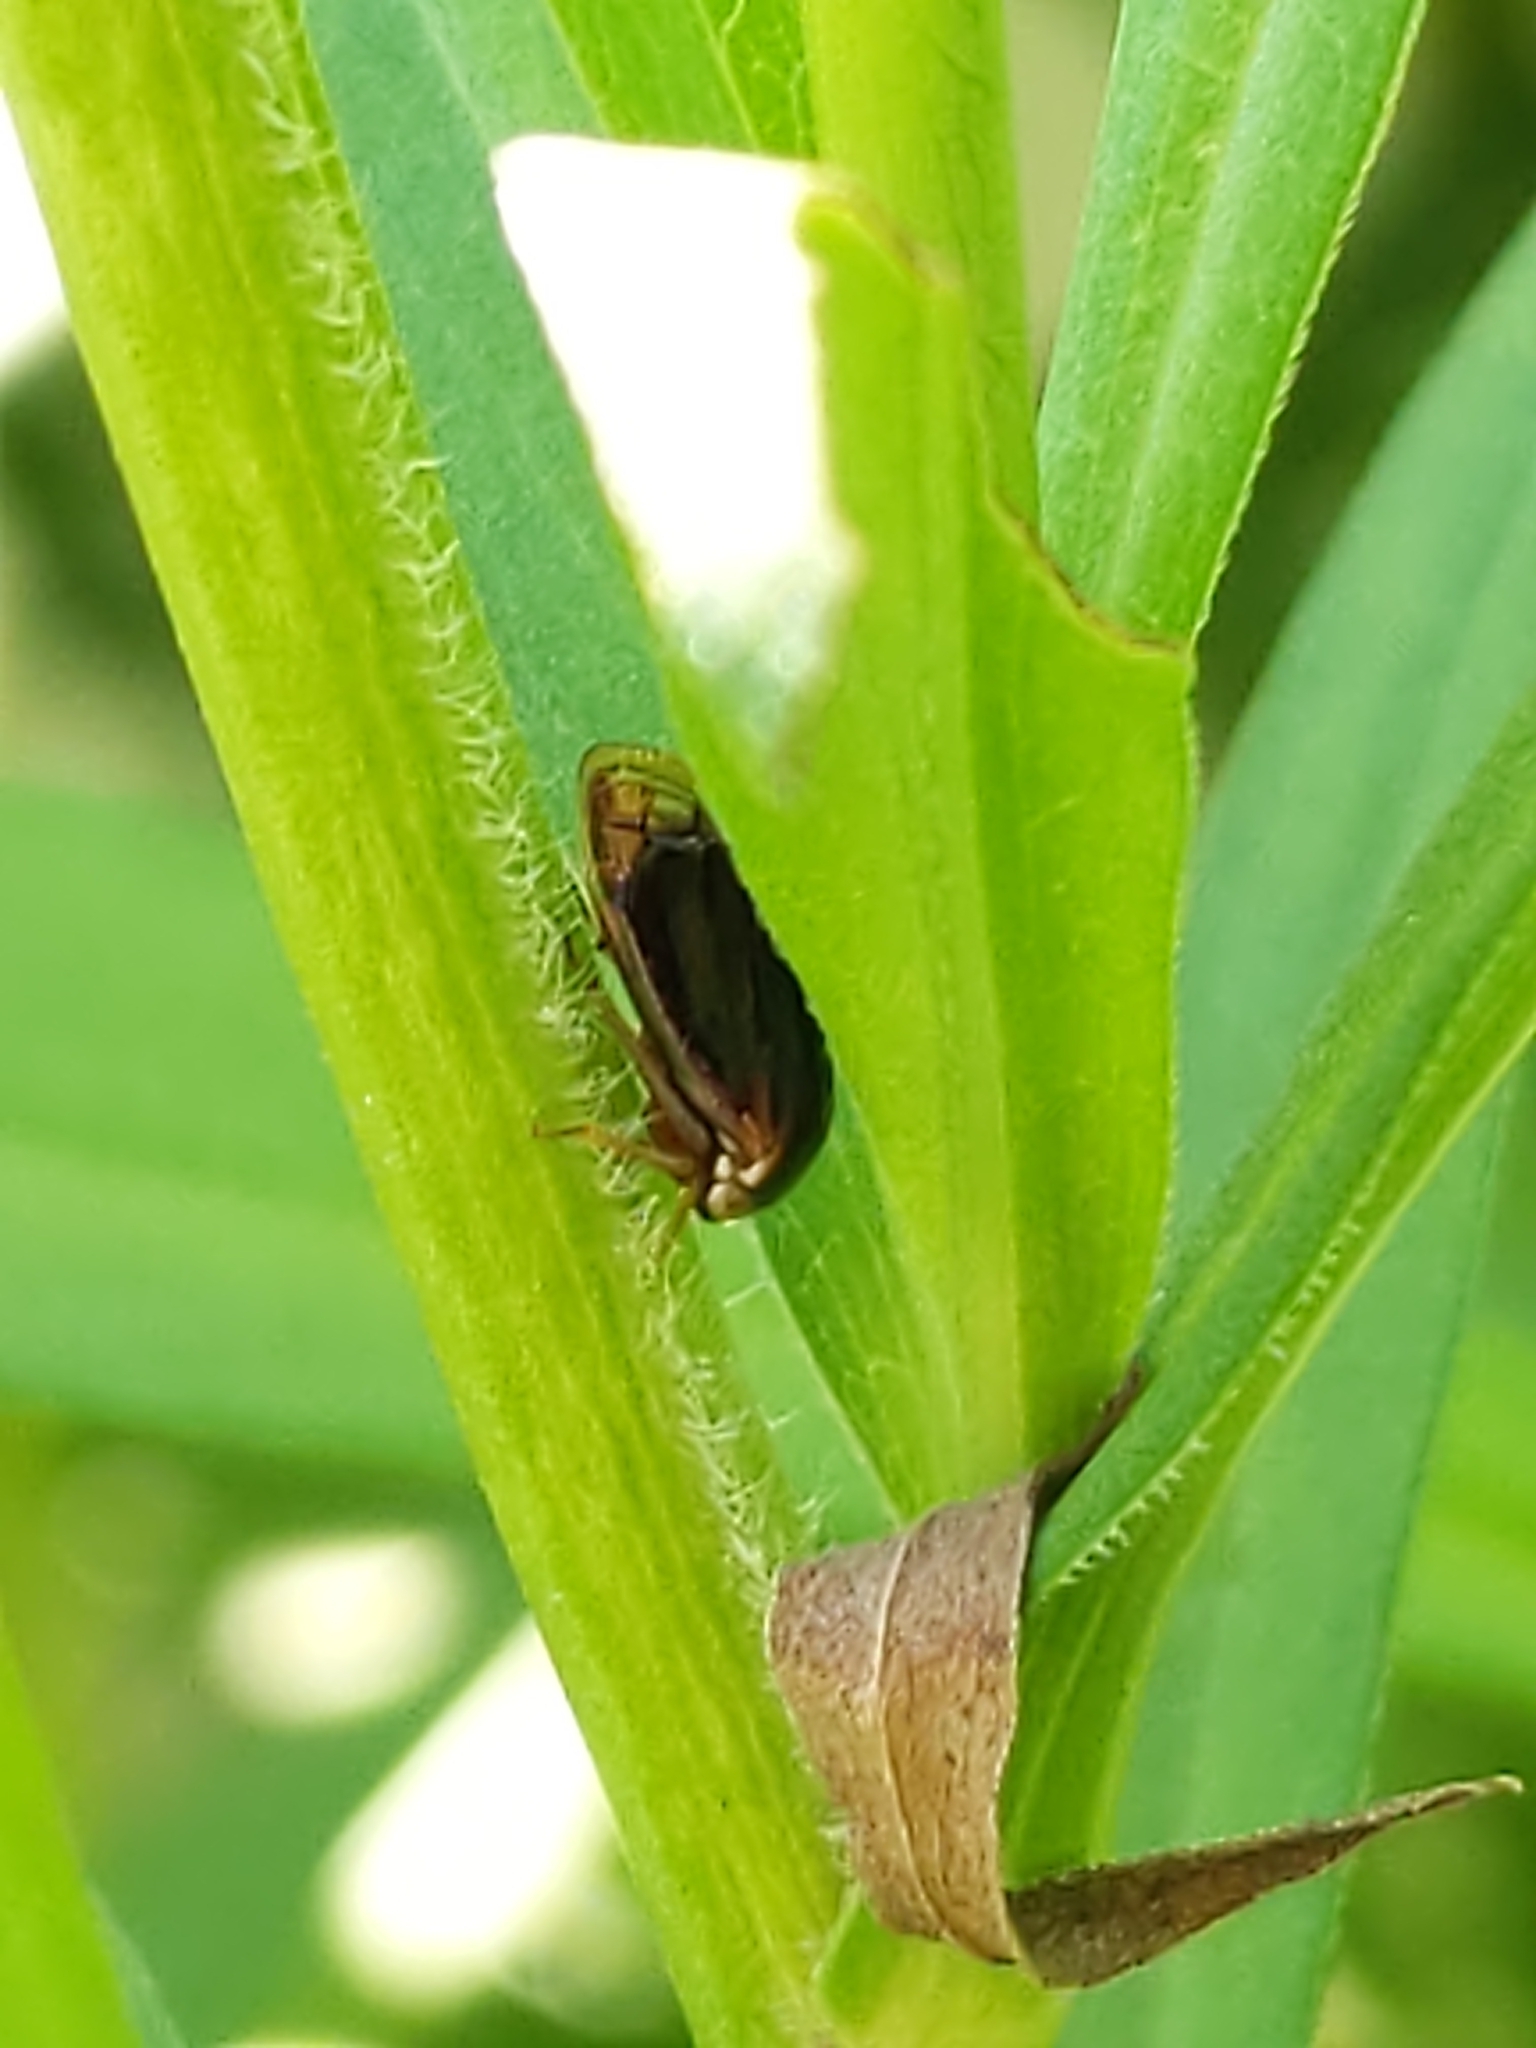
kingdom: Animalia
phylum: Arthropoda
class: Insecta
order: Hemiptera
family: Membracidae
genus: Acutalis
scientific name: Acutalis tartarea
